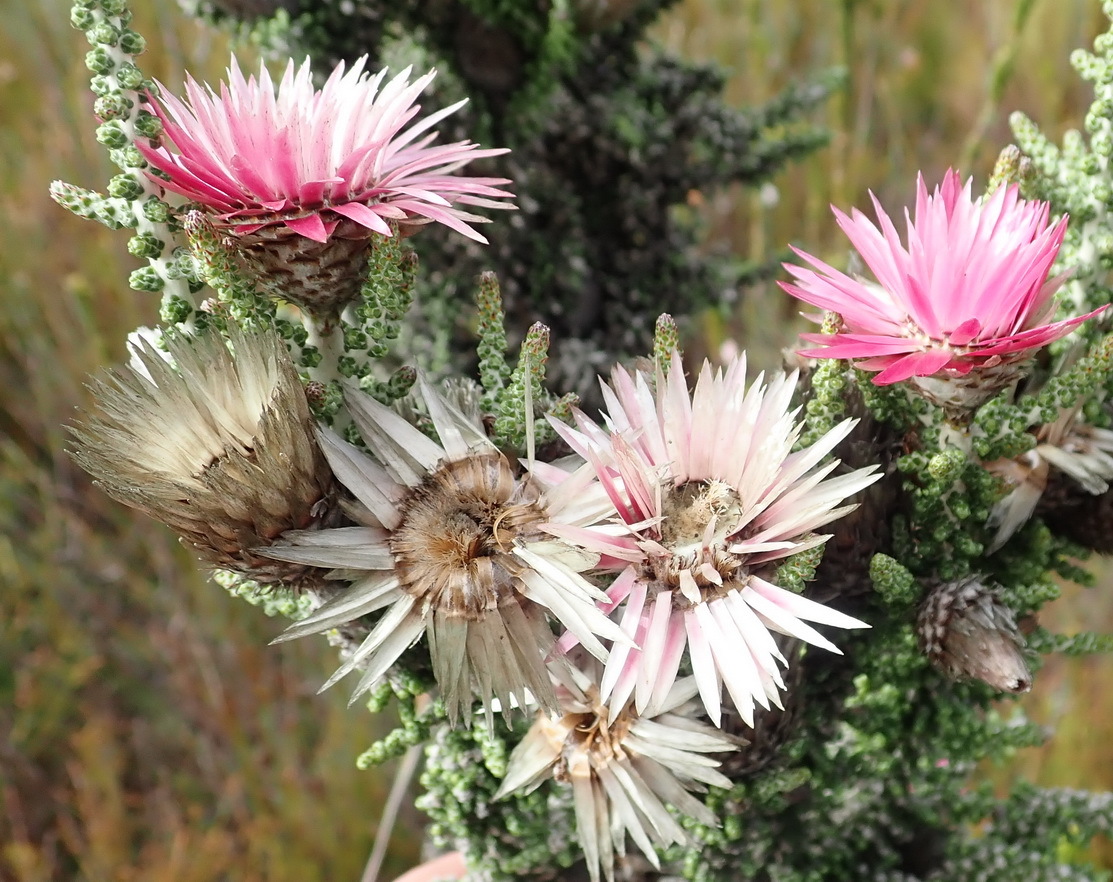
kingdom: Plantae
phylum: Tracheophyta
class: Magnoliopsida
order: Asterales
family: Asteraceae
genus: Phaenocoma
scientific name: Phaenocoma prolifera
